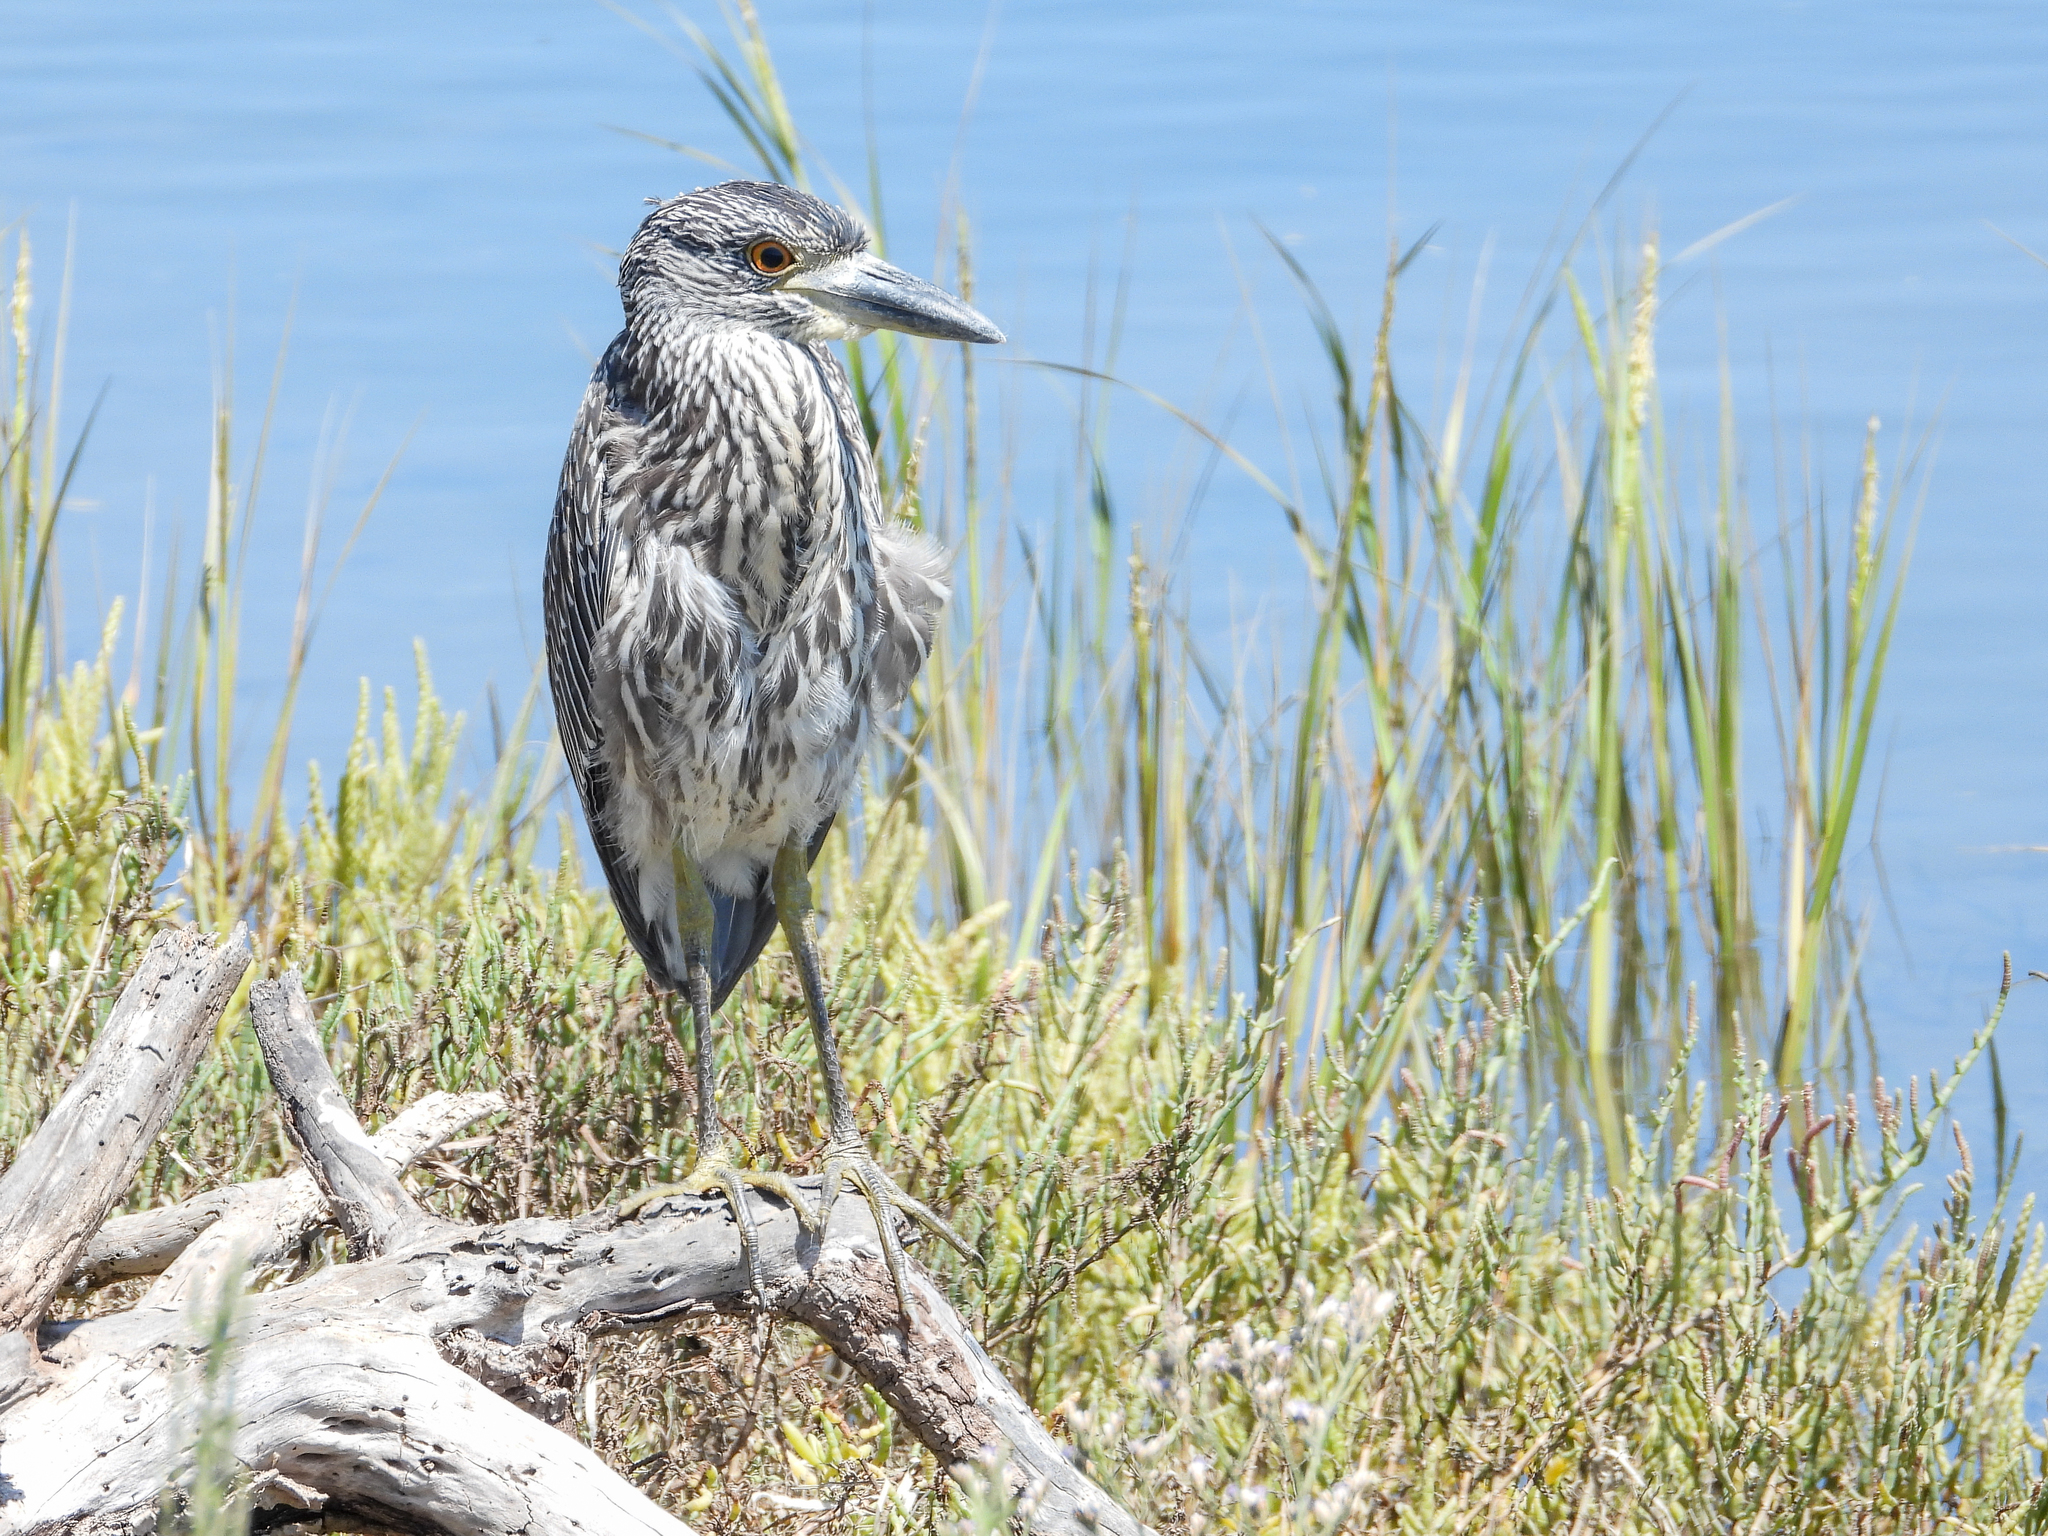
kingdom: Animalia
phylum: Chordata
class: Aves
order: Pelecaniformes
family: Ardeidae
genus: Nyctanassa
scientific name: Nyctanassa violacea
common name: Yellow-crowned night heron
